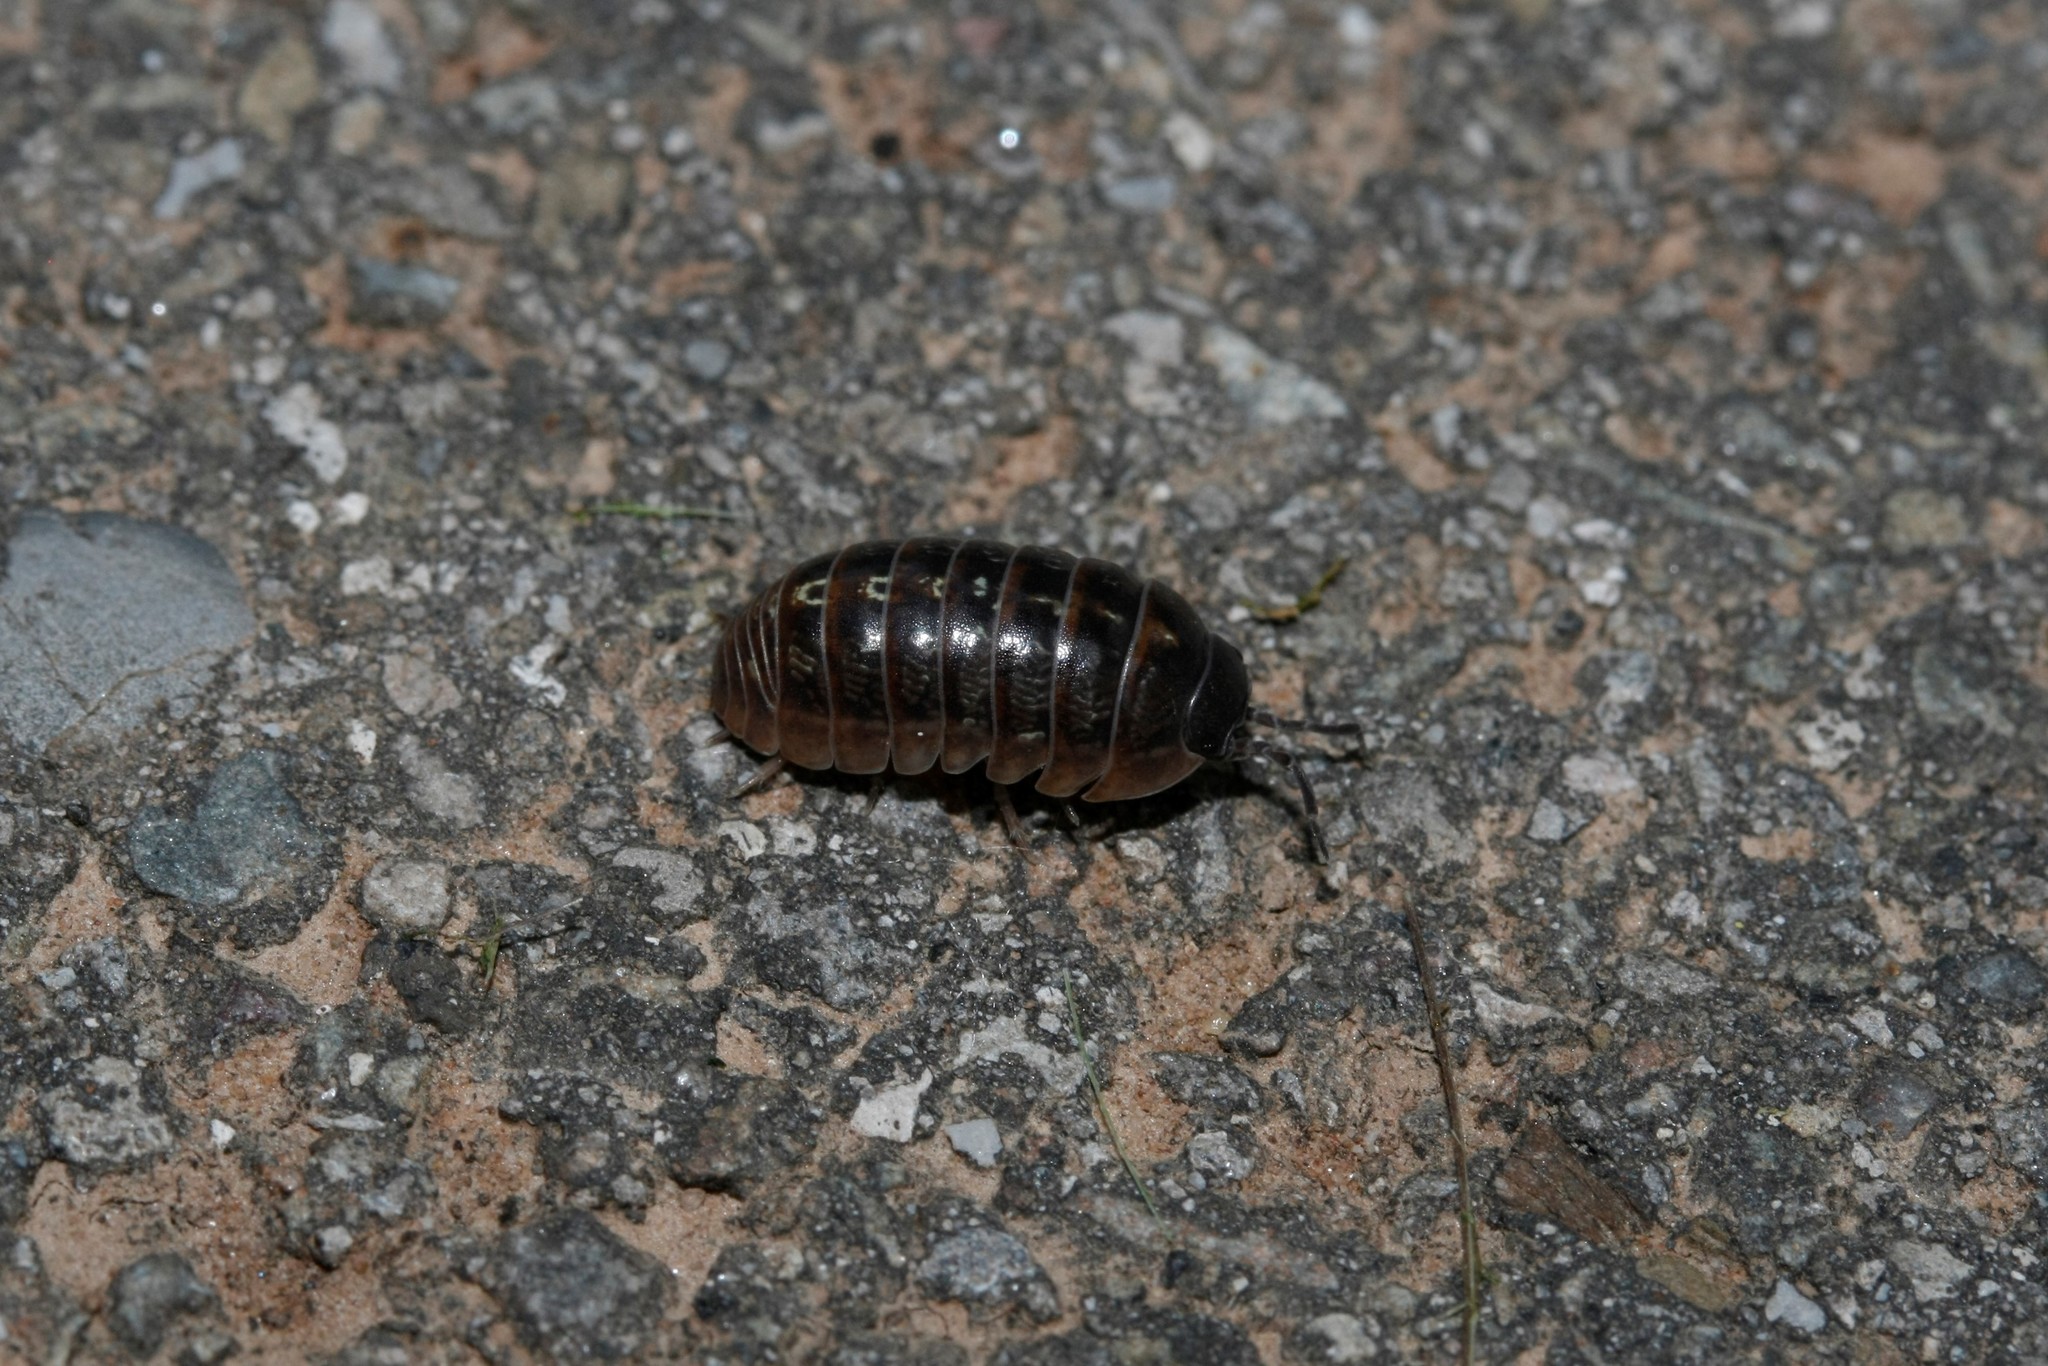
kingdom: Animalia
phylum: Arthropoda
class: Malacostraca
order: Isopoda
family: Armadillidiidae
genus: Armadillidium
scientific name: Armadillidium vulgare
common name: Common pill woodlouse
